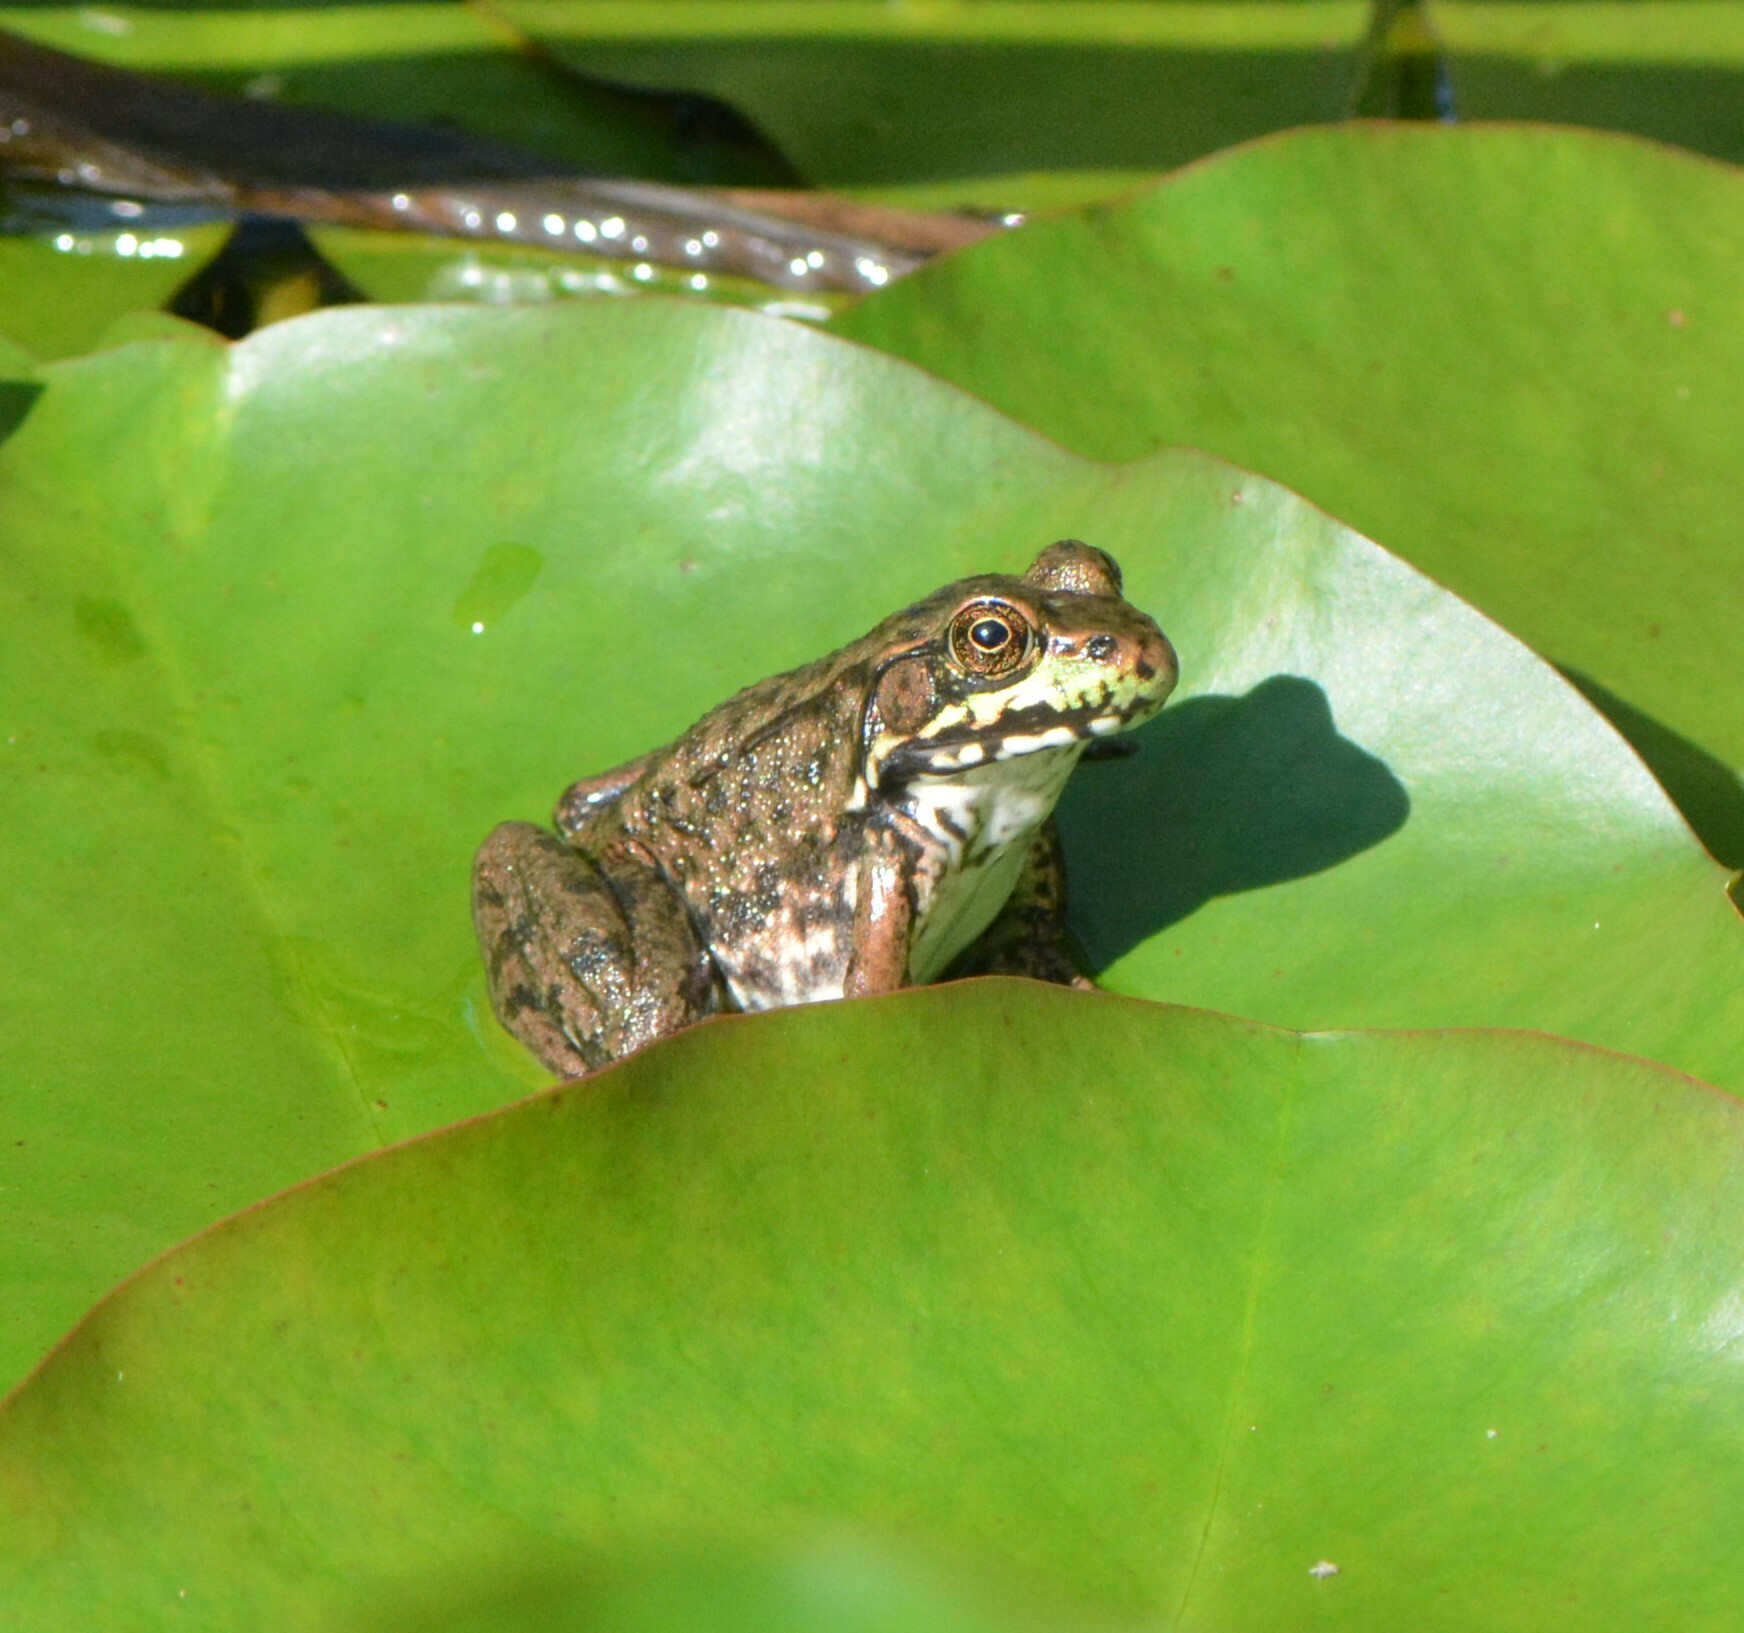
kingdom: Animalia
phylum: Chordata
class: Amphibia
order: Anura
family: Ranidae
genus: Lithobates
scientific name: Lithobates clamitans
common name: Green frog
